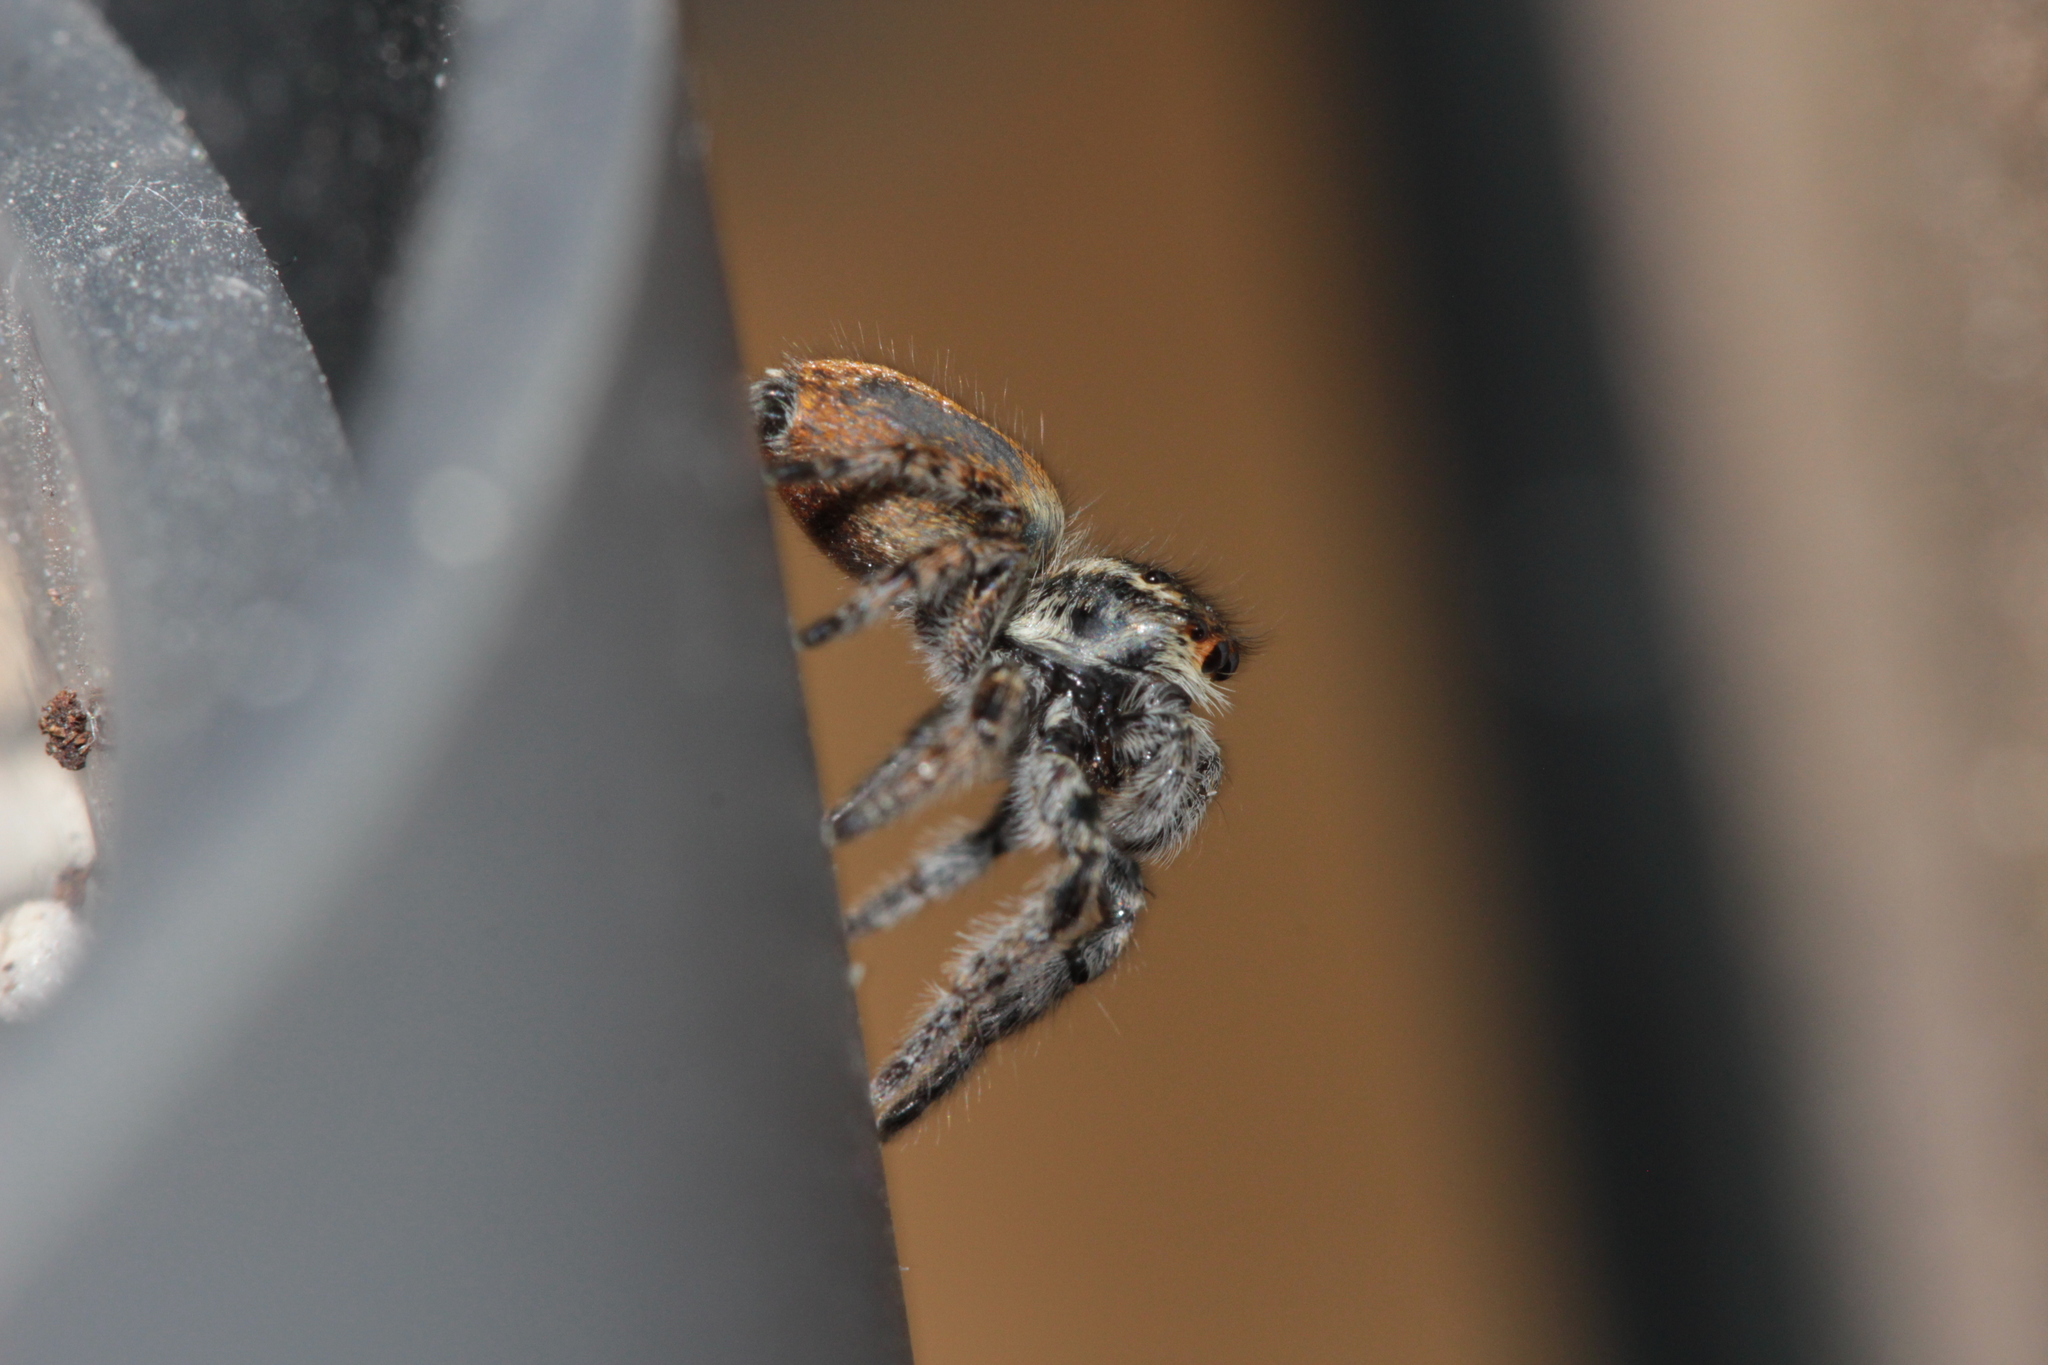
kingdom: Animalia
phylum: Arthropoda
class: Arachnida
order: Araneae
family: Salticidae
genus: Carrhotus
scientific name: Carrhotus xanthogramma
